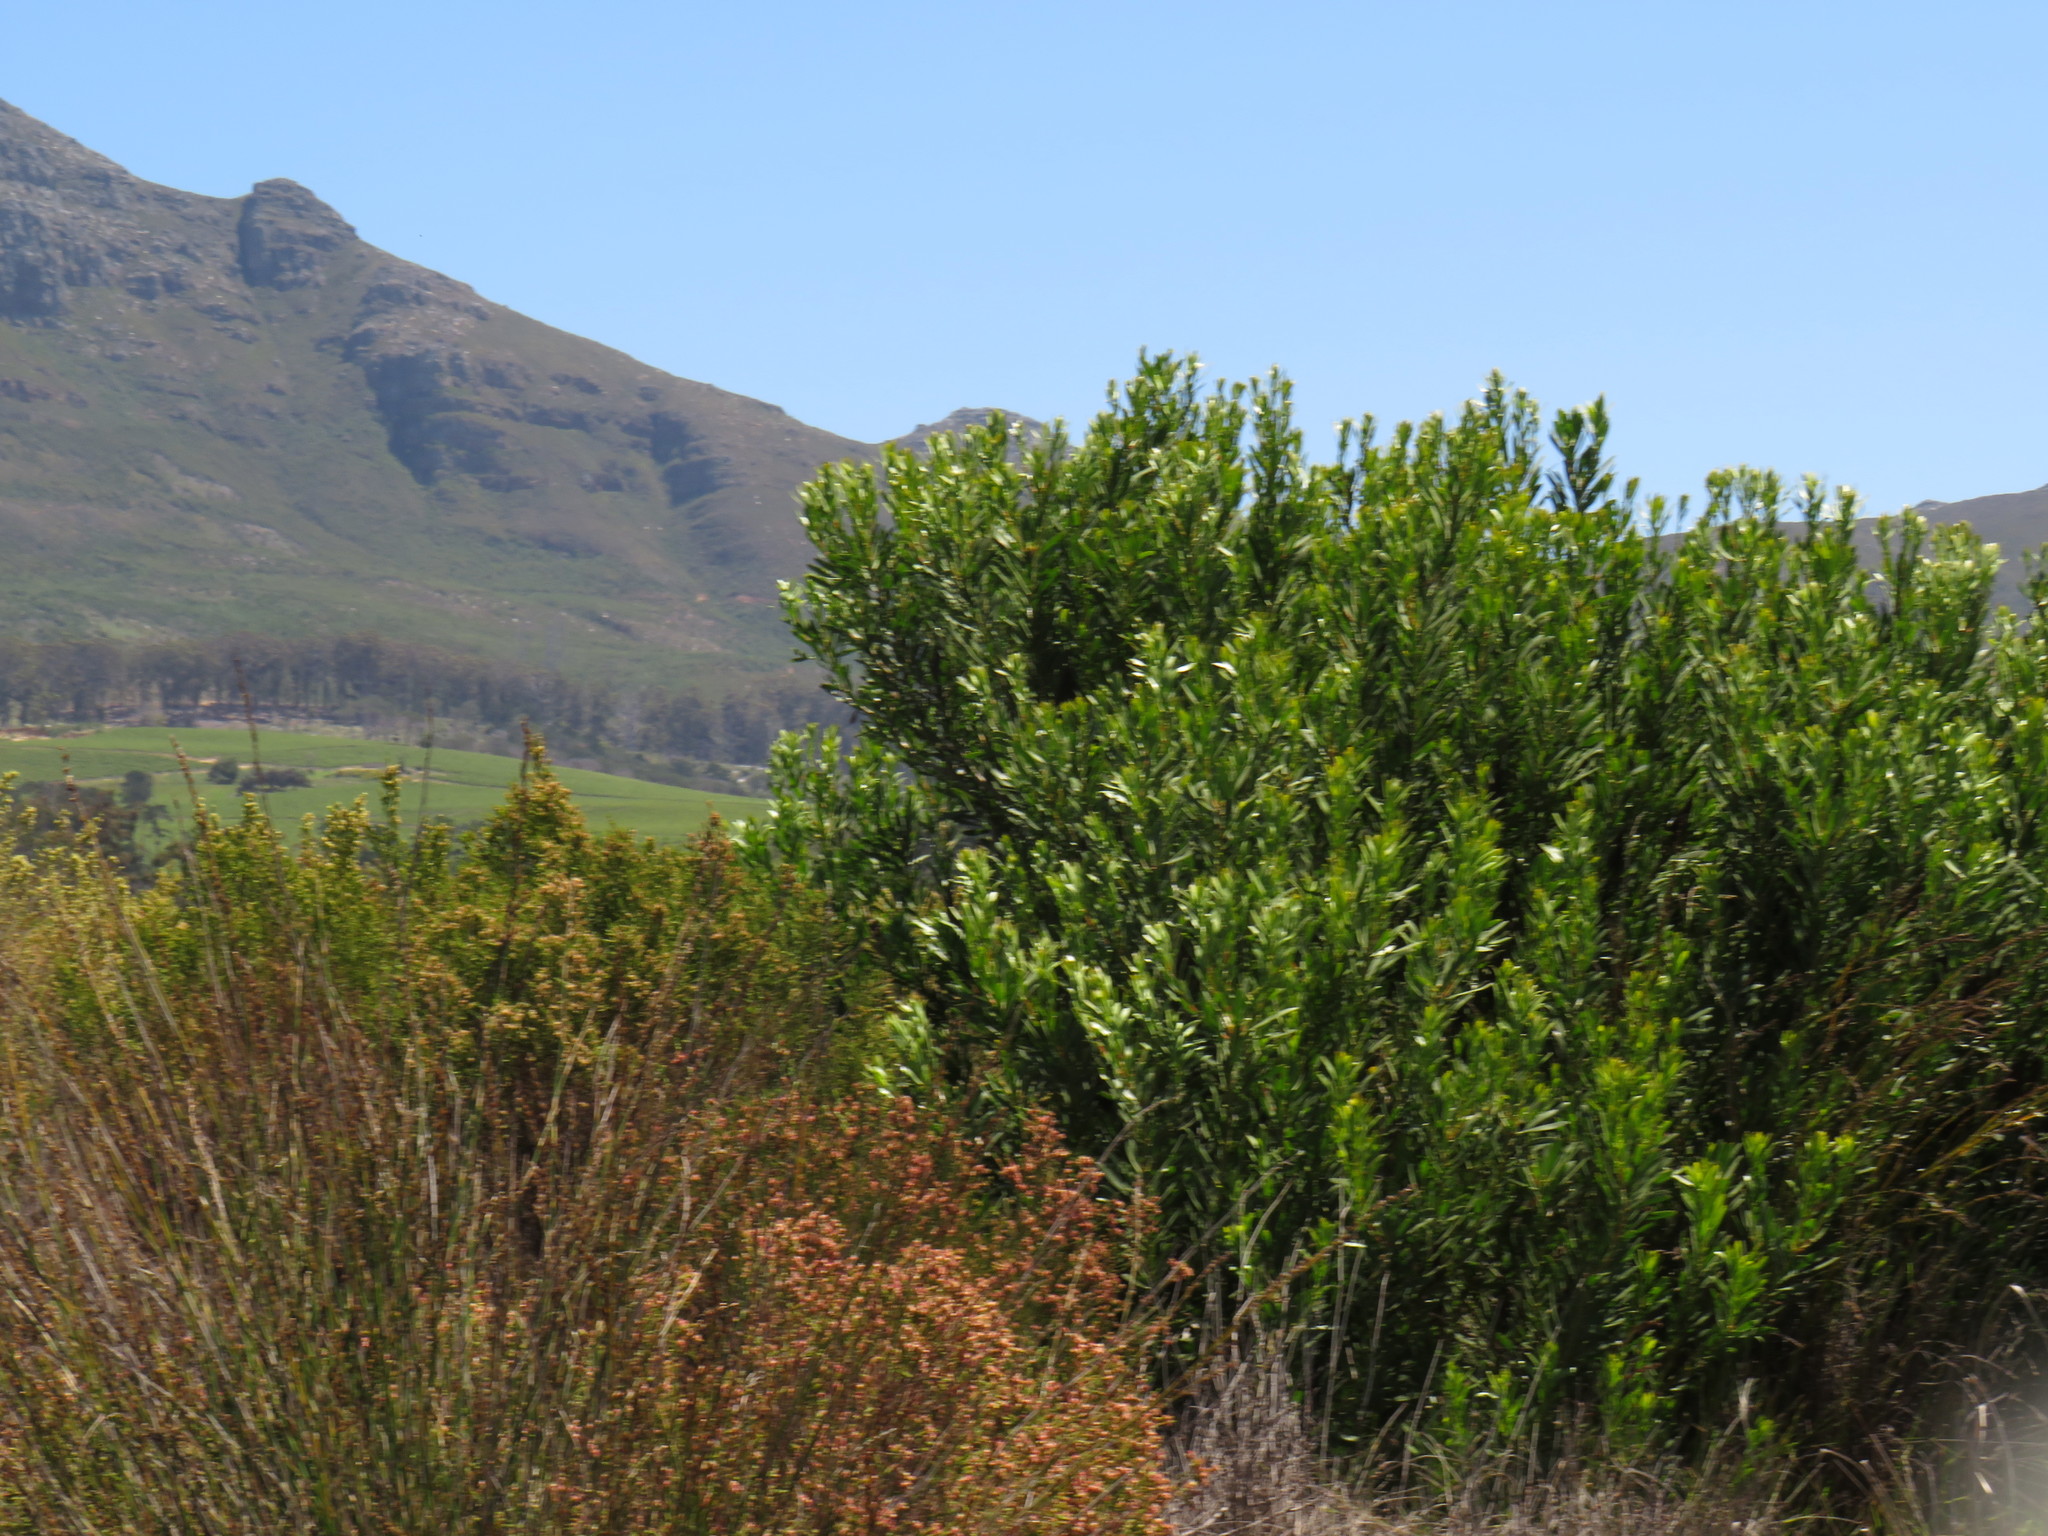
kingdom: Plantae
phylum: Tracheophyta
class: Magnoliopsida
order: Proteales
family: Proteaceae
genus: Protea
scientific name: Protea repens
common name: Sugarbush
